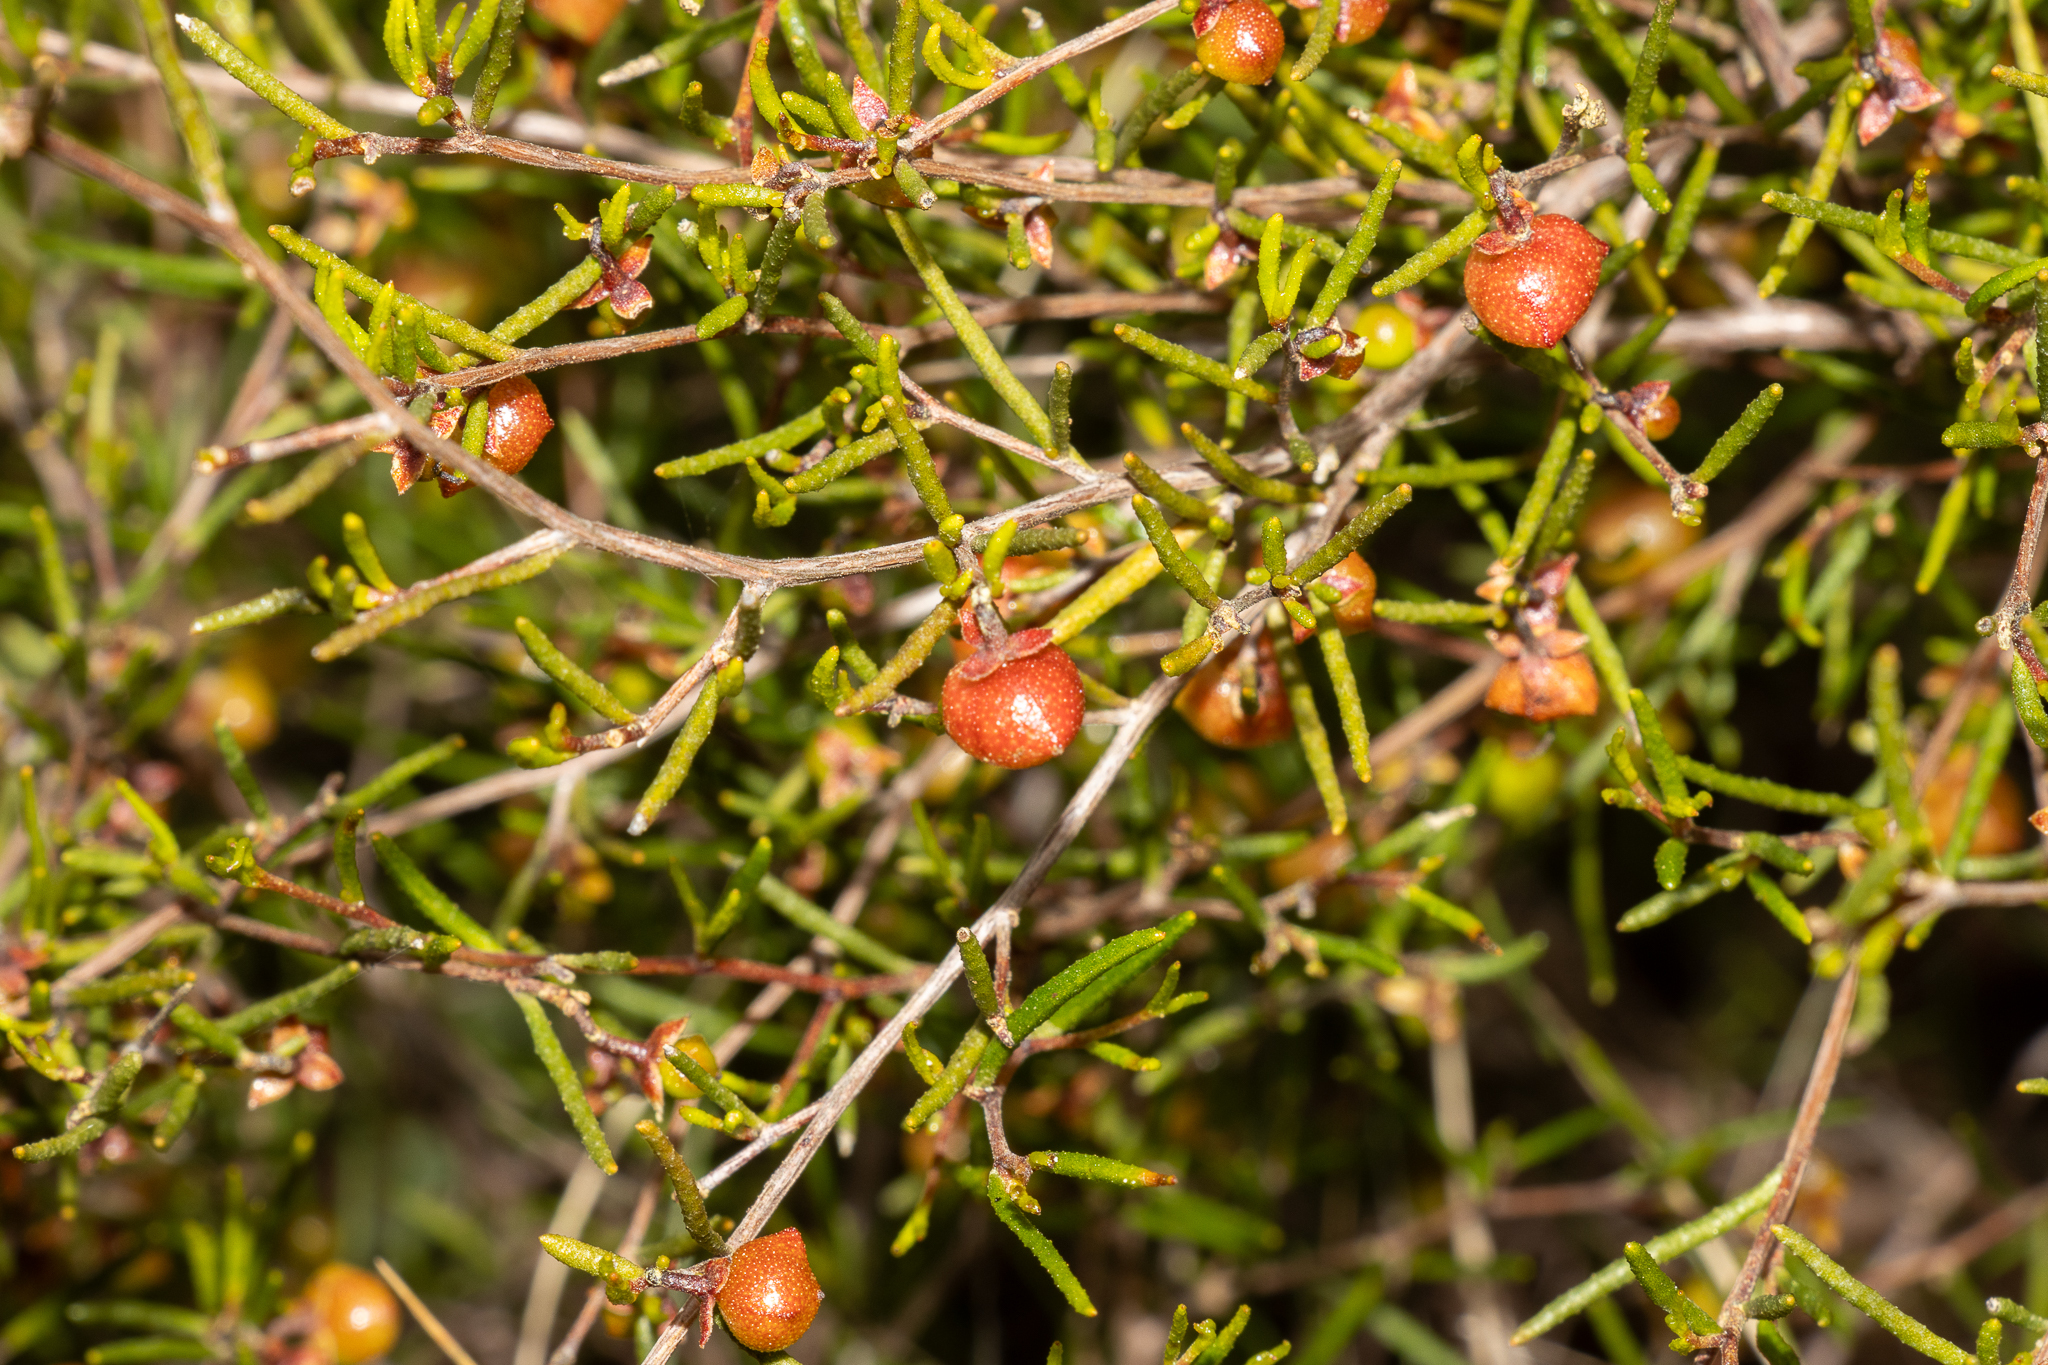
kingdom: Plantae
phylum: Tracheophyta
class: Magnoliopsida
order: Sapindales
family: Sapindaceae
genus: Dodonaea
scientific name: Dodonaea hexandra
